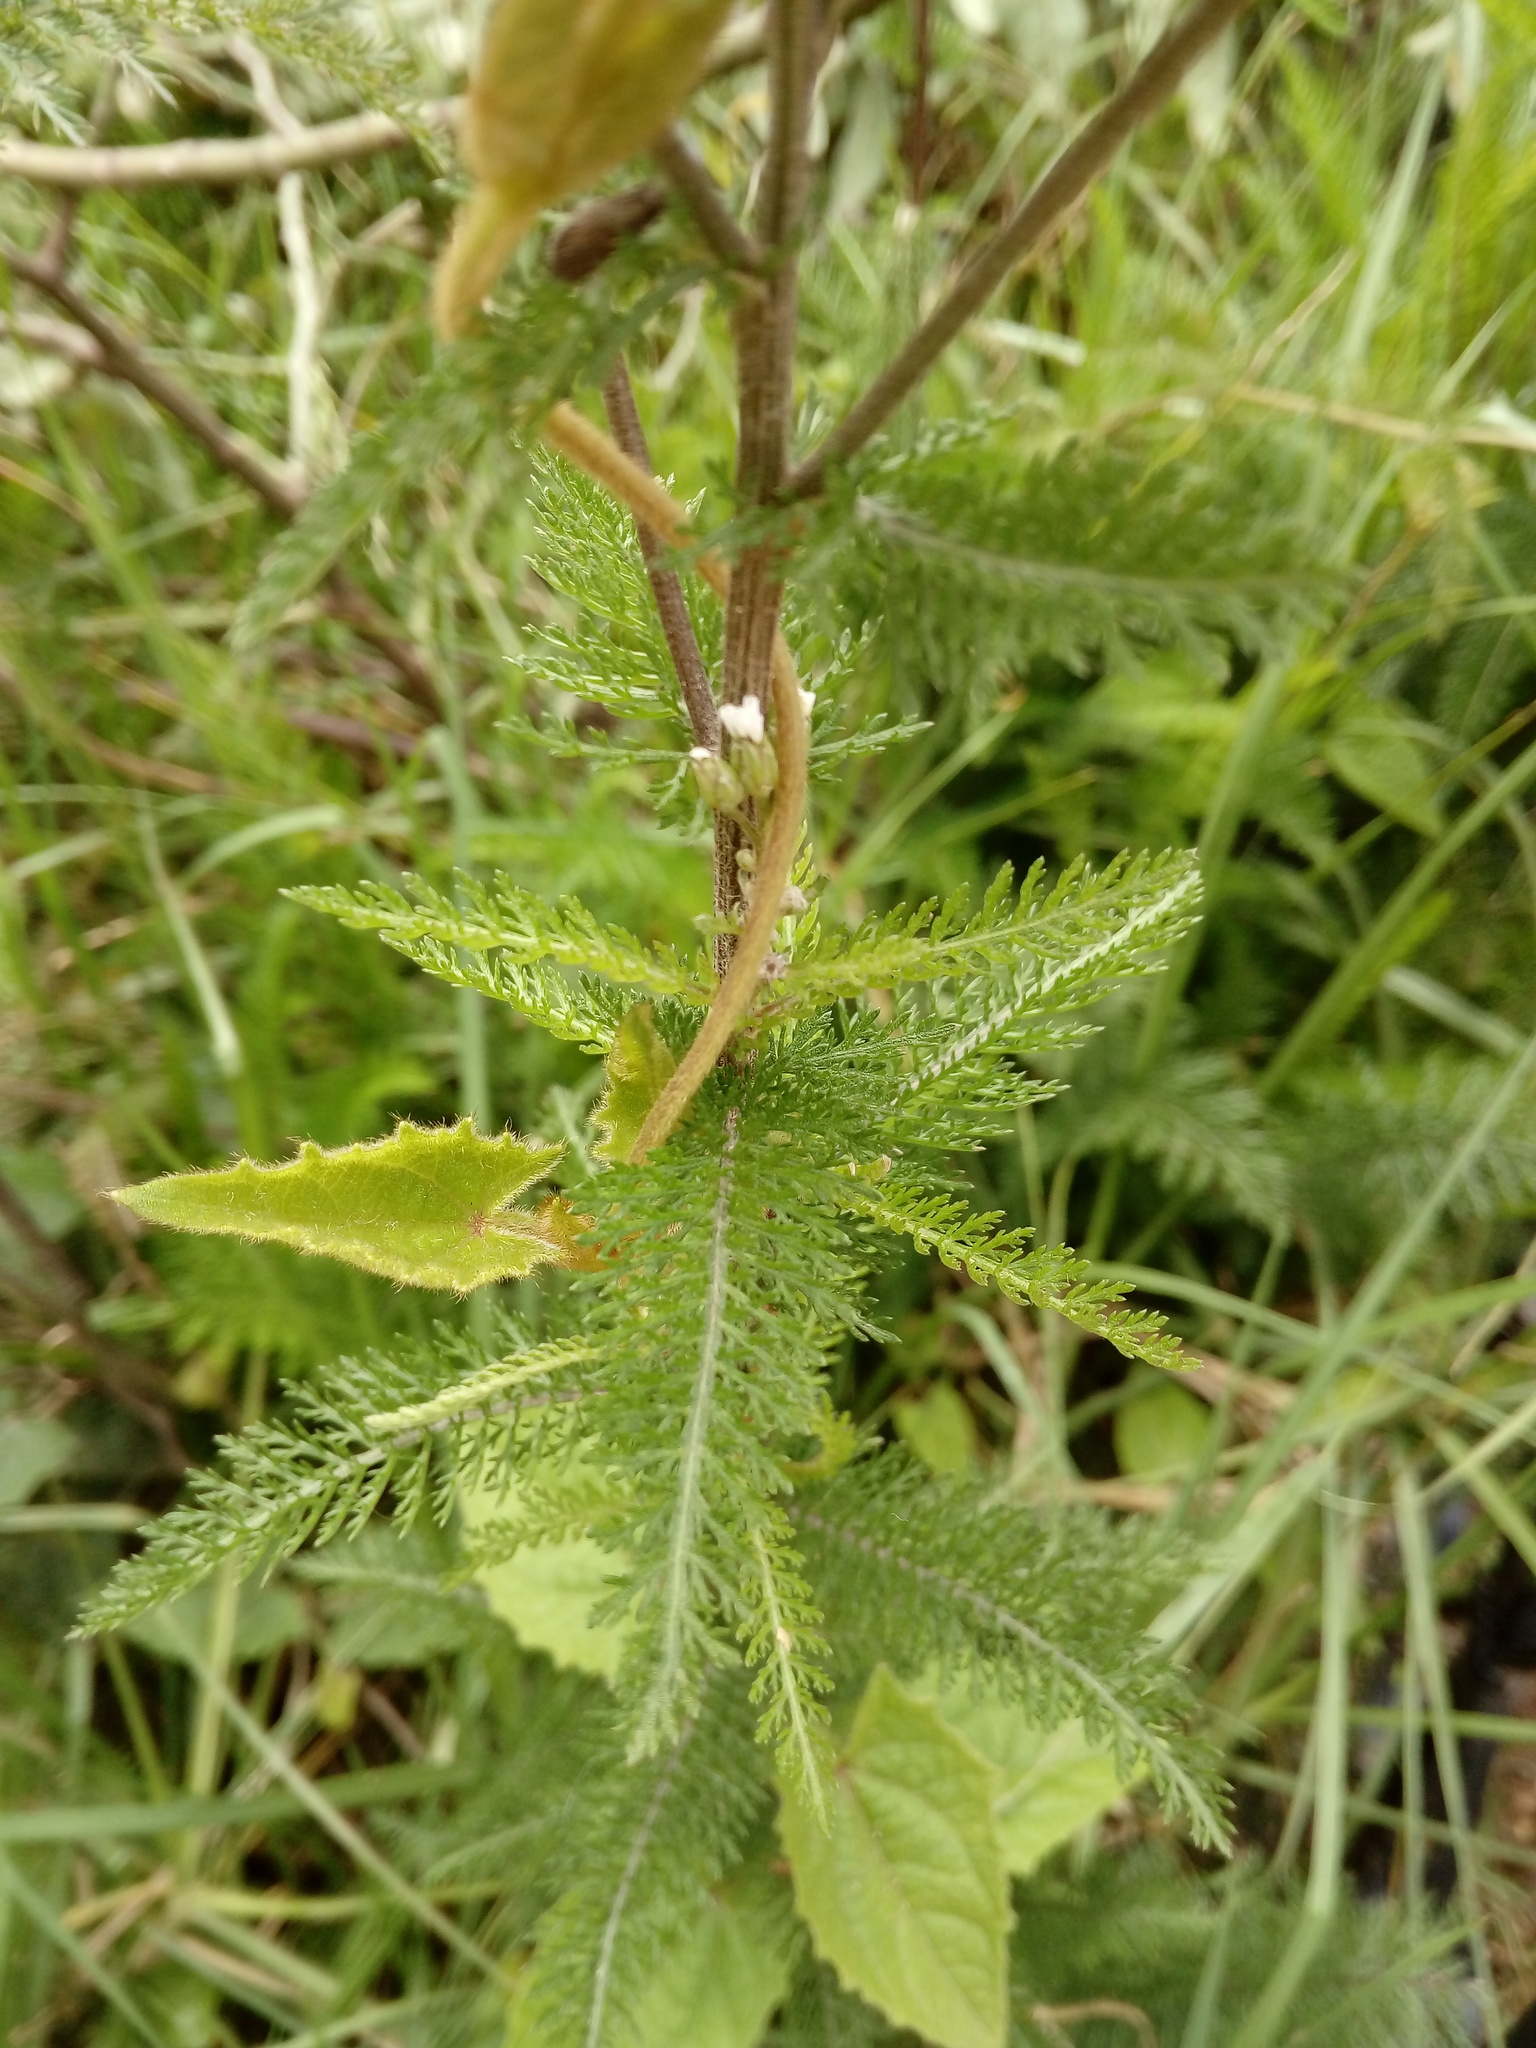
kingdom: Plantae
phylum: Tracheophyta
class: Magnoliopsida
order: Asterales
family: Asteraceae
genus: Achillea
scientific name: Achillea millefolium
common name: Yarrow
